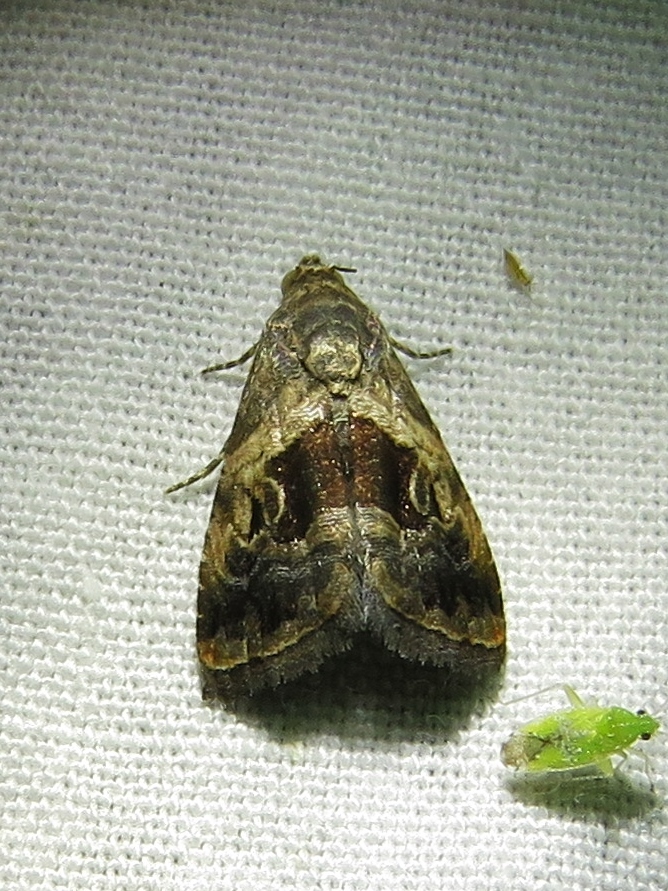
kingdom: Animalia
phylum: Arthropoda
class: Insecta
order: Lepidoptera
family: Noctuidae
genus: Tripudia
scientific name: Tripudia quadrifera
